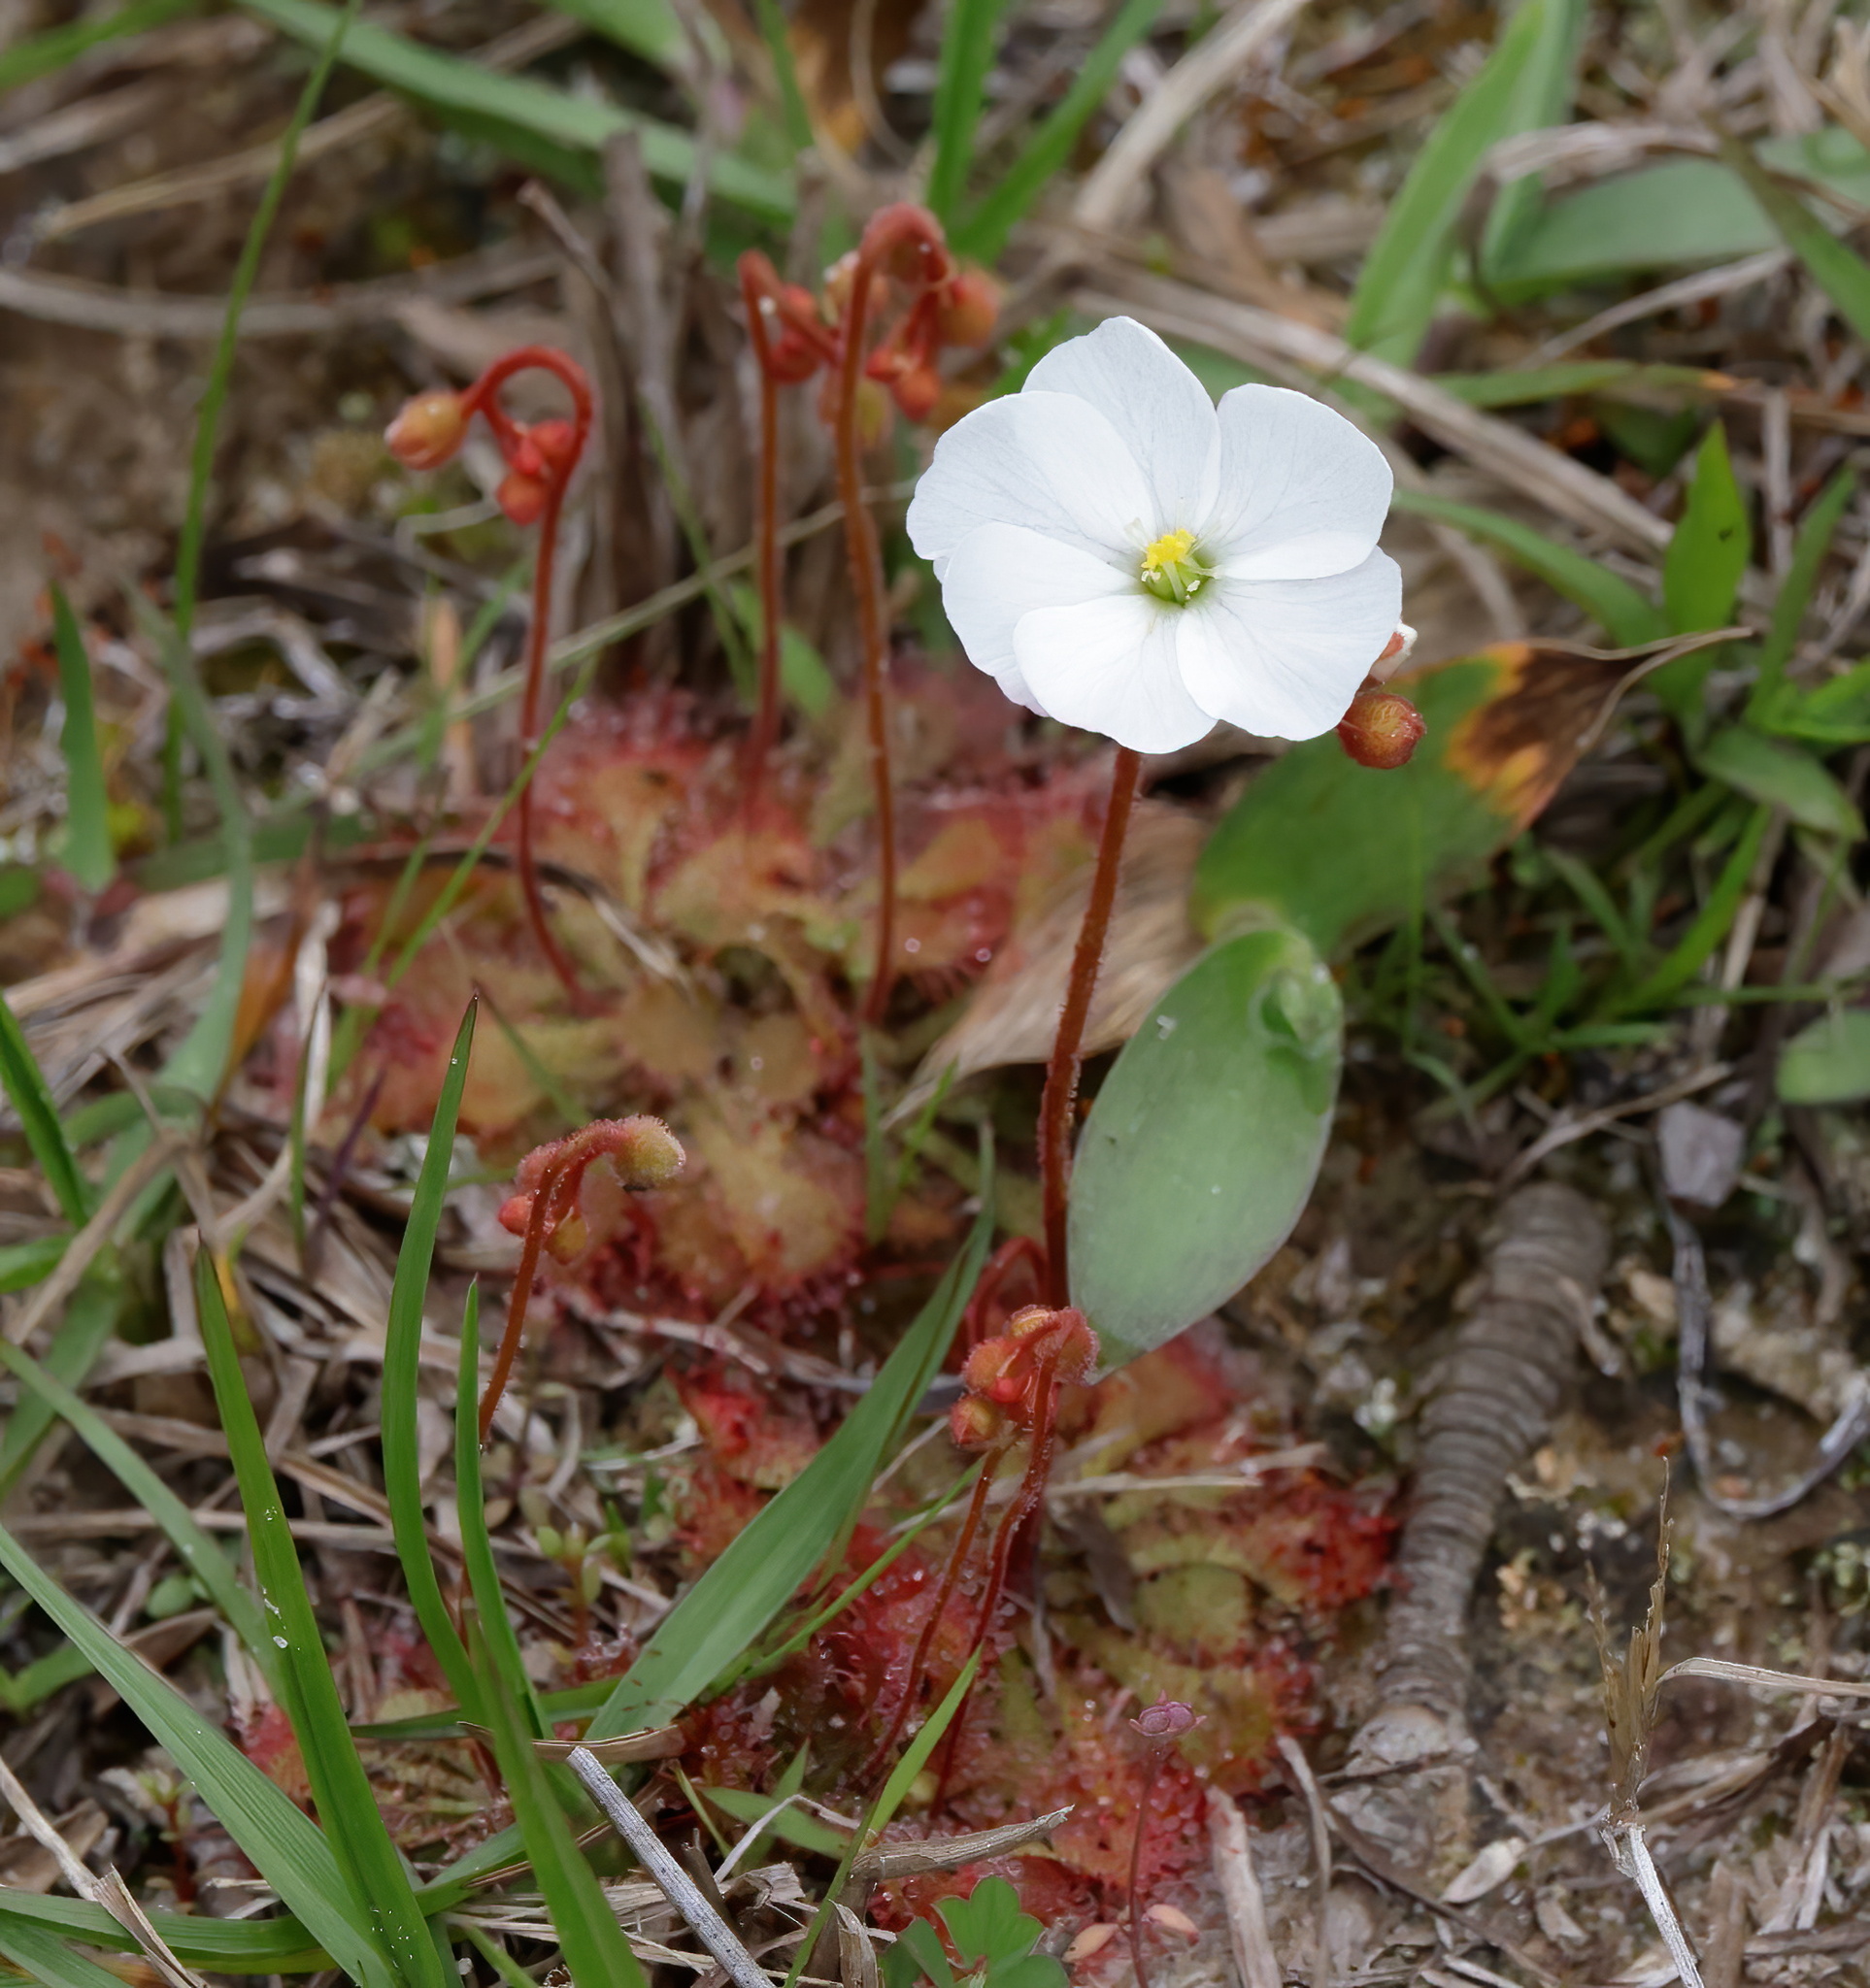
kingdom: Plantae
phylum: Tracheophyta
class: Magnoliopsida
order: Caryophyllales
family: Droseraceae
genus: Drosera
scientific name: Drosera brevifolia
